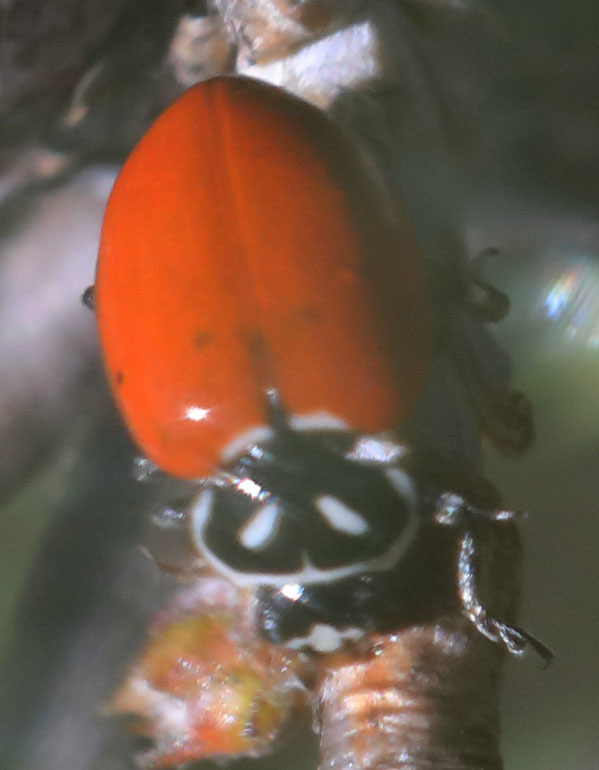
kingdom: Animalia
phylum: Arthropoda
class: Insecta
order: Coleoptera
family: Coccinellidae
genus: Hippodamia
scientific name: Hippodamia convergens
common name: Convergent lady beetle
